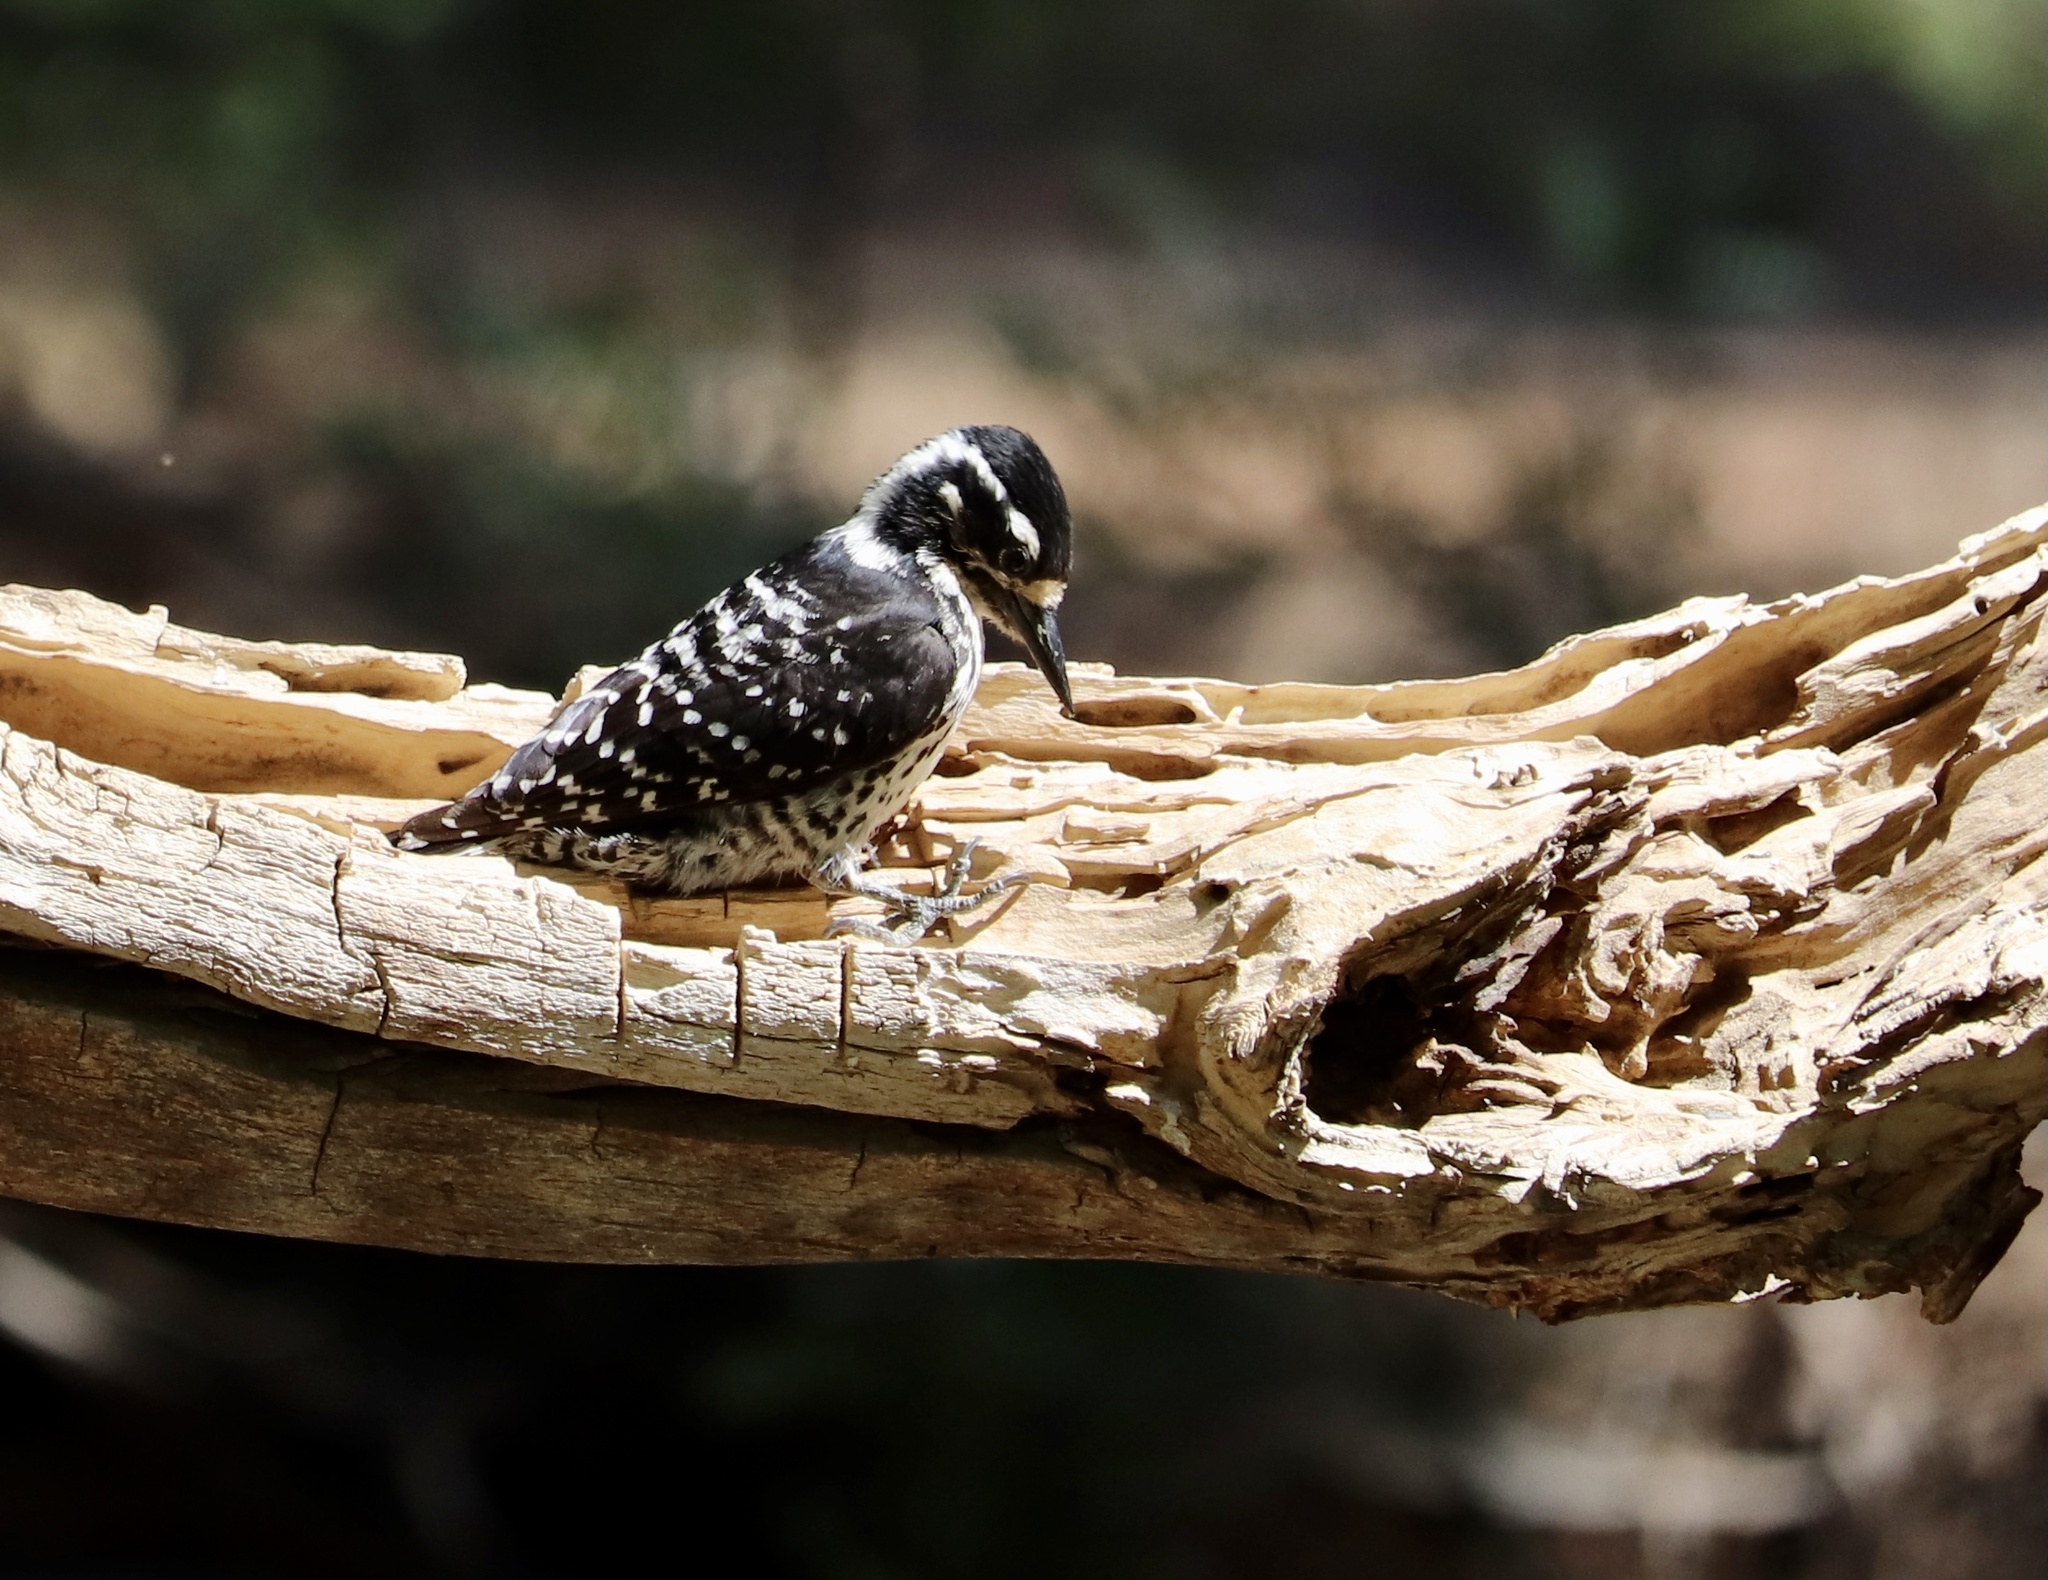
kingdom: Animalia
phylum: Chordata
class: Aves
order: Piciformes
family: Picidae
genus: Dryobates
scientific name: Dryobates nuttallii
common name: Nuttall's woodpecker
